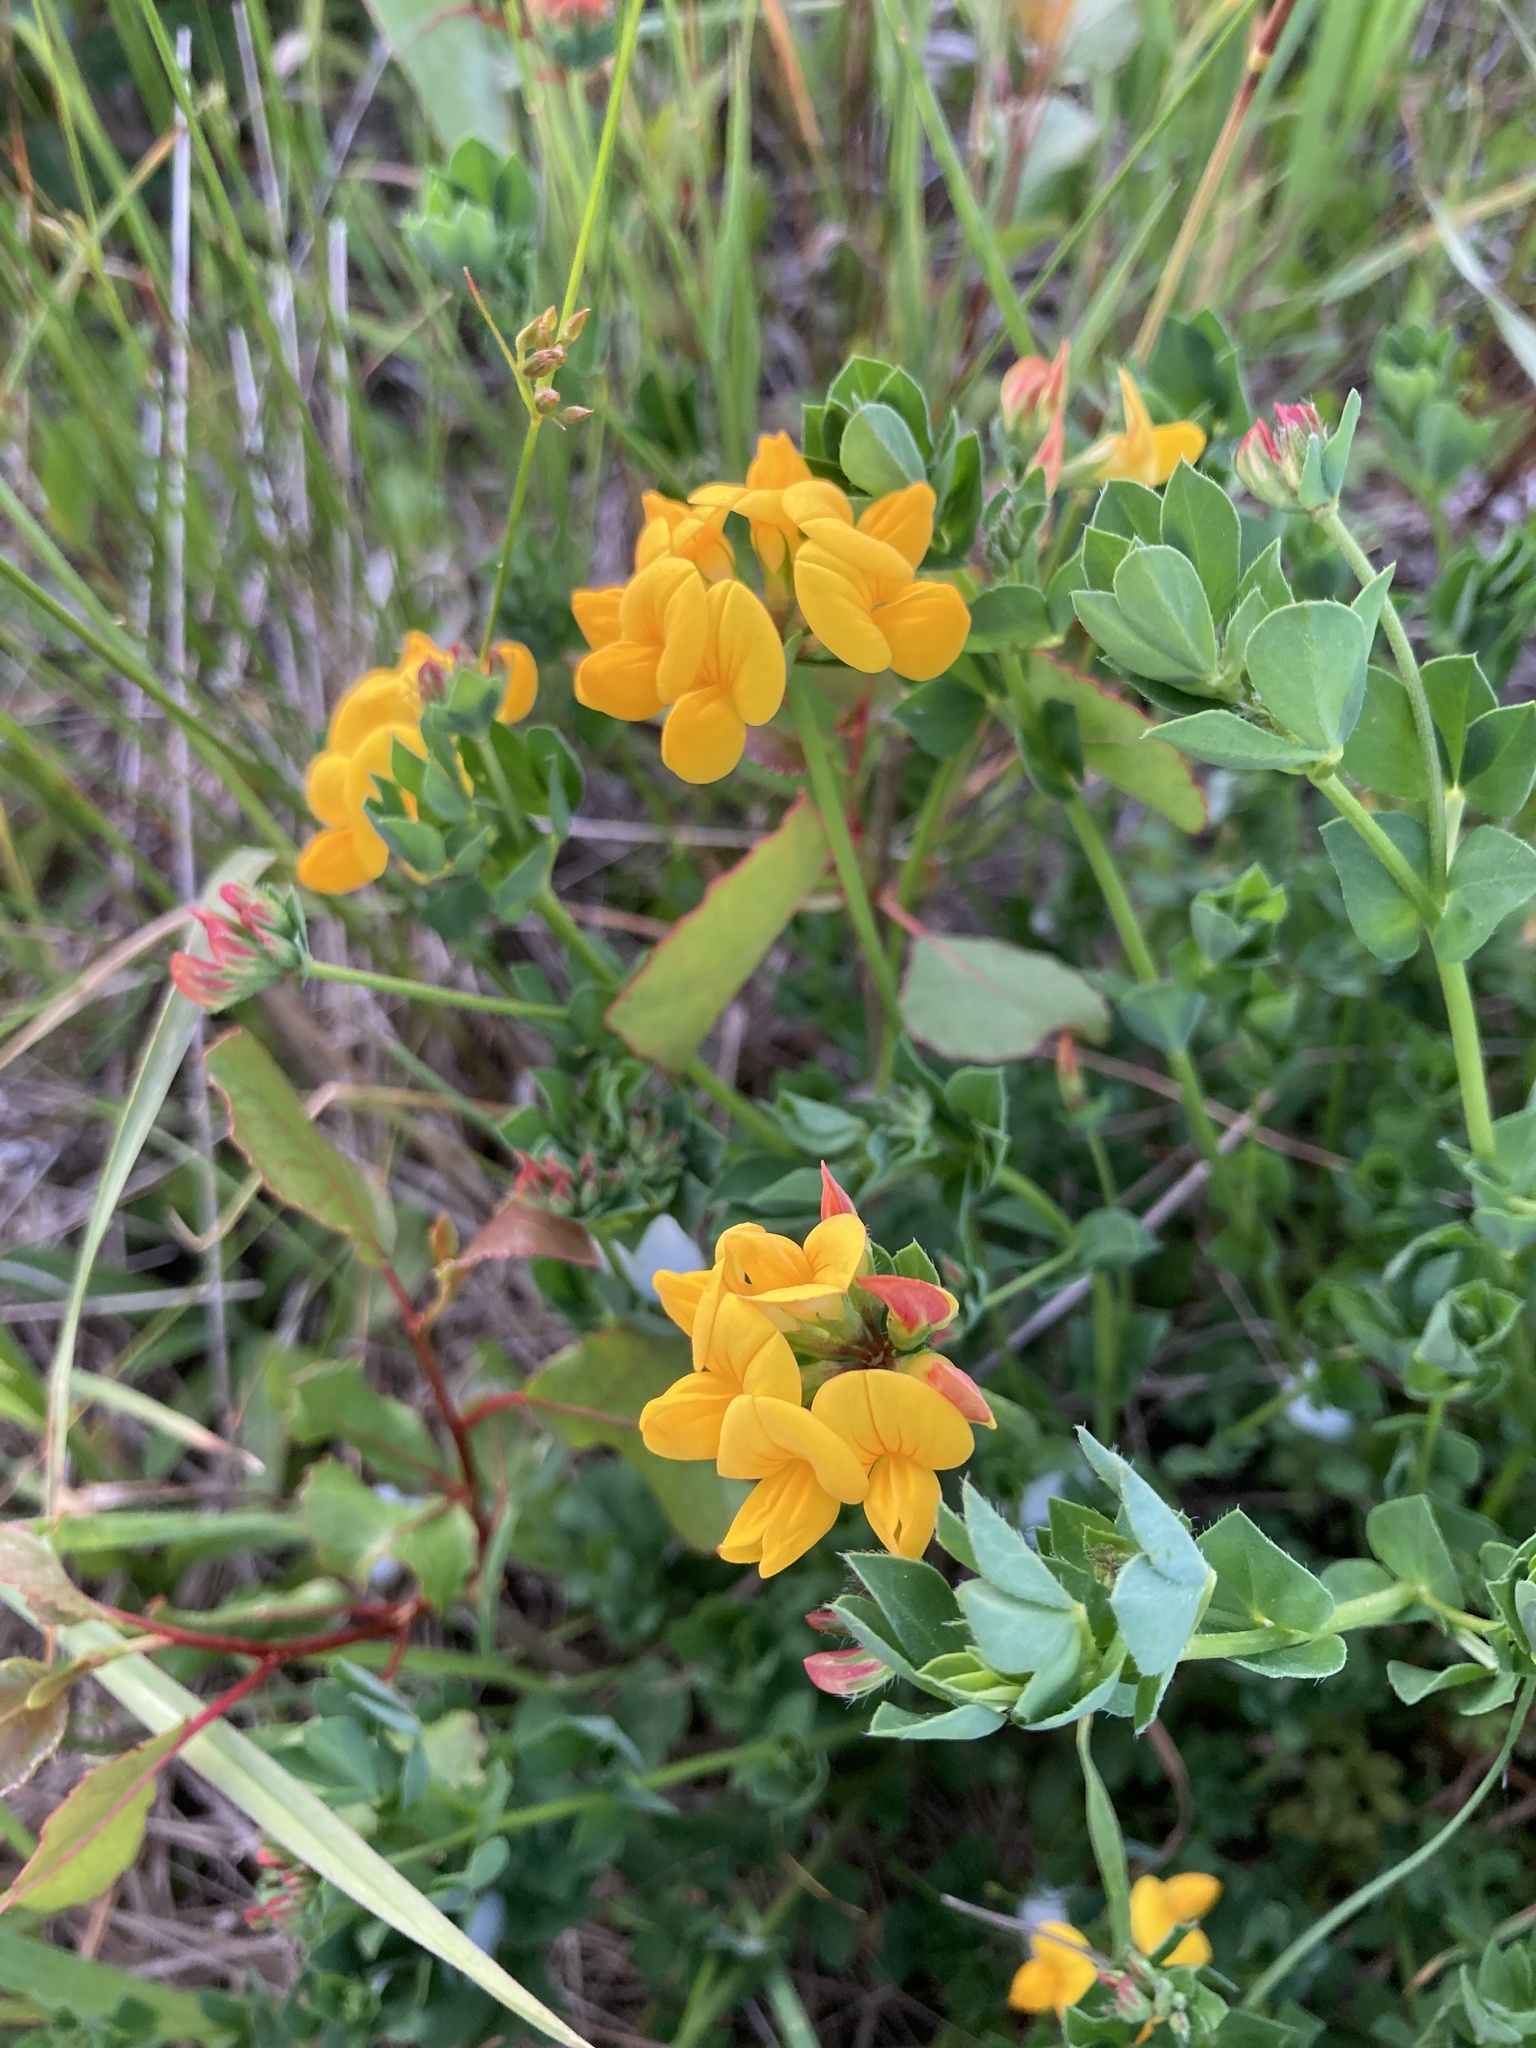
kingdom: Plantae
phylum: Tracheophyta
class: Magnoliopsida
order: Fabales
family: Fabaceae
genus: Lotus
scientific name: Lotus corniculatus
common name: Common bird's-foot-trefoil
